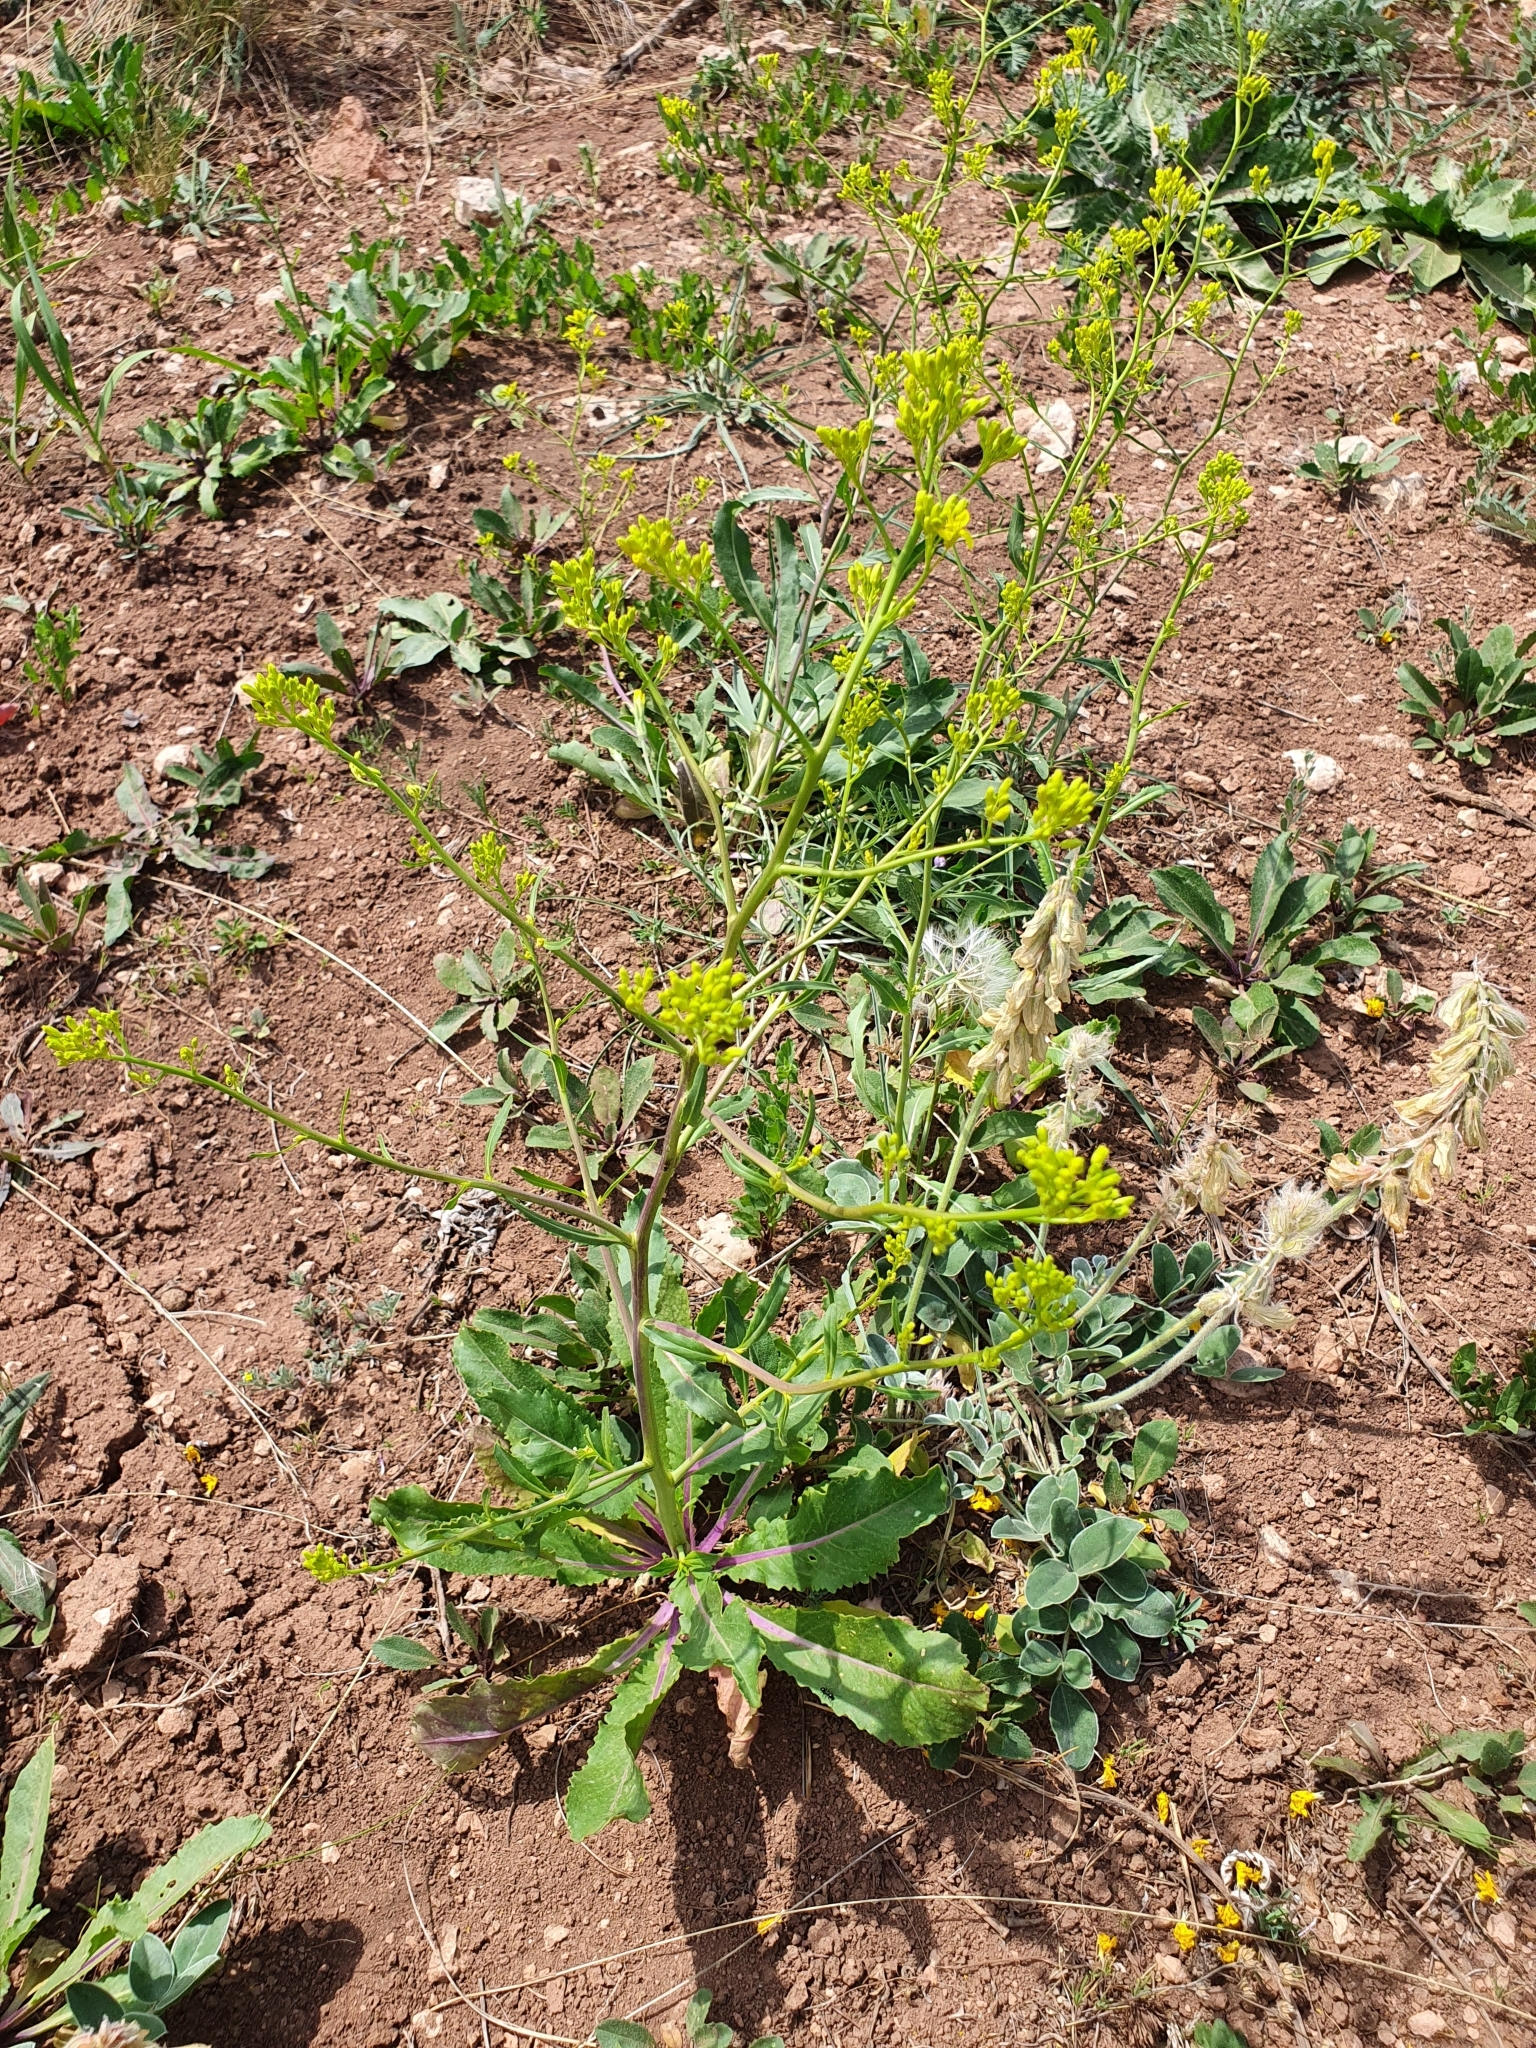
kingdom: Plantae
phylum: Tracheophyta
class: Magnoliopsida
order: Brassicales
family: Brassicaceae
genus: Brassica
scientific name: Brassica elongata
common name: Long-stalked rape
